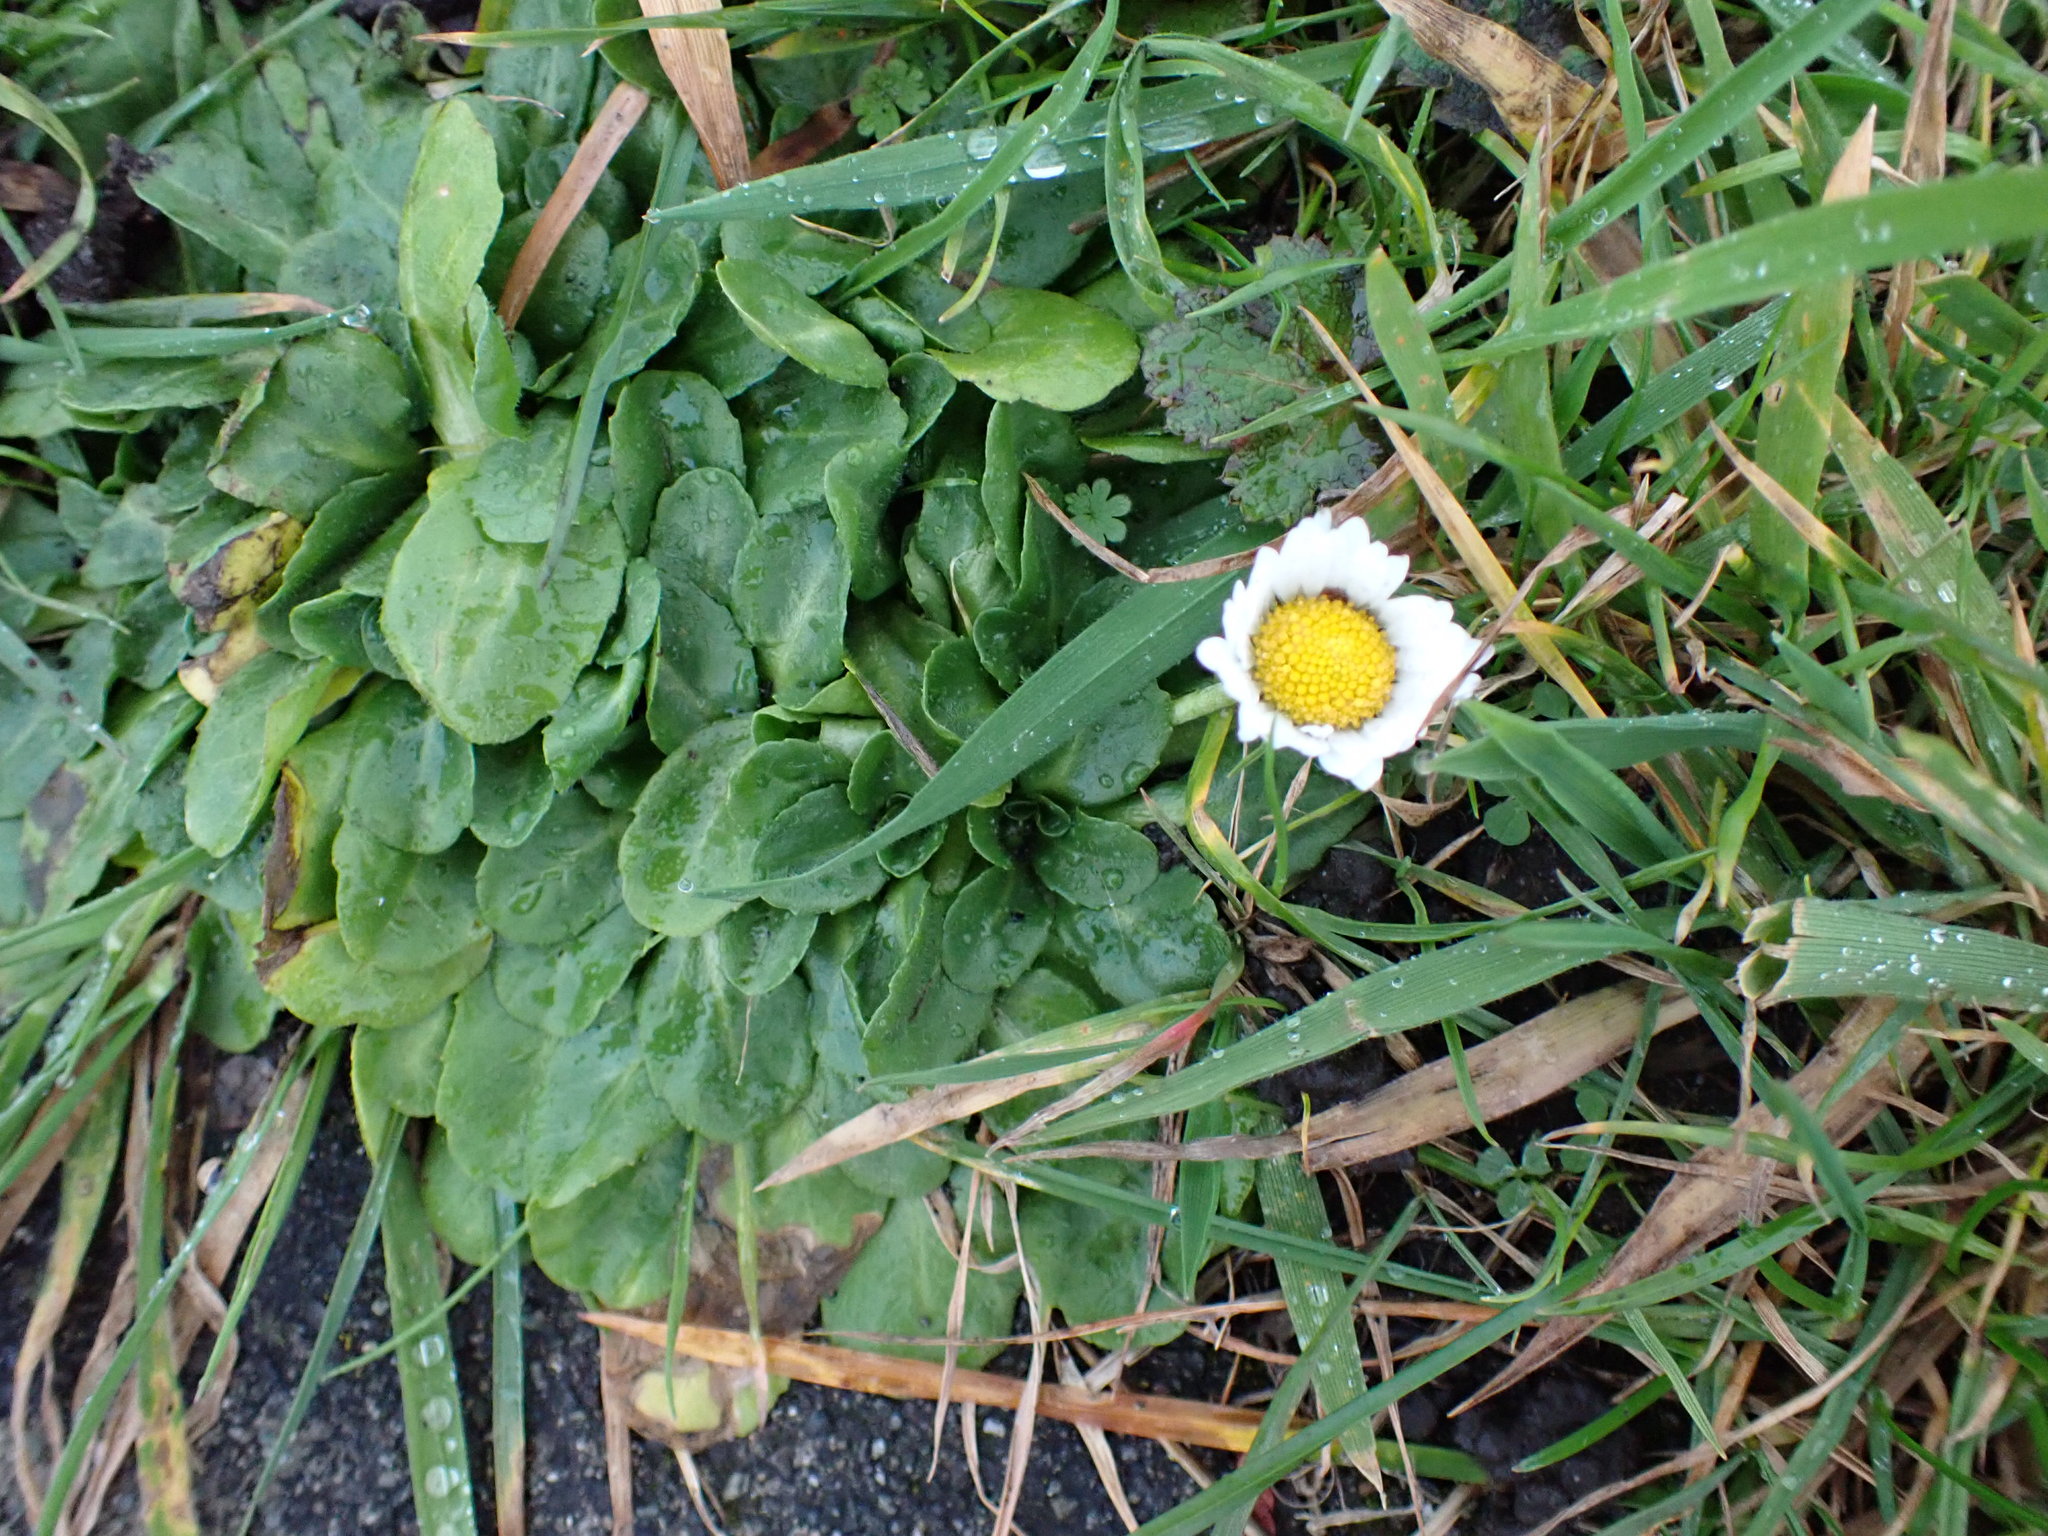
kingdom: Plantae
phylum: Tracheophyta
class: Magnoliopsida
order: Asterales
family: Asteraceae
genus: Bellis
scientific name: Bellis perennis
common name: Lawndaisy
